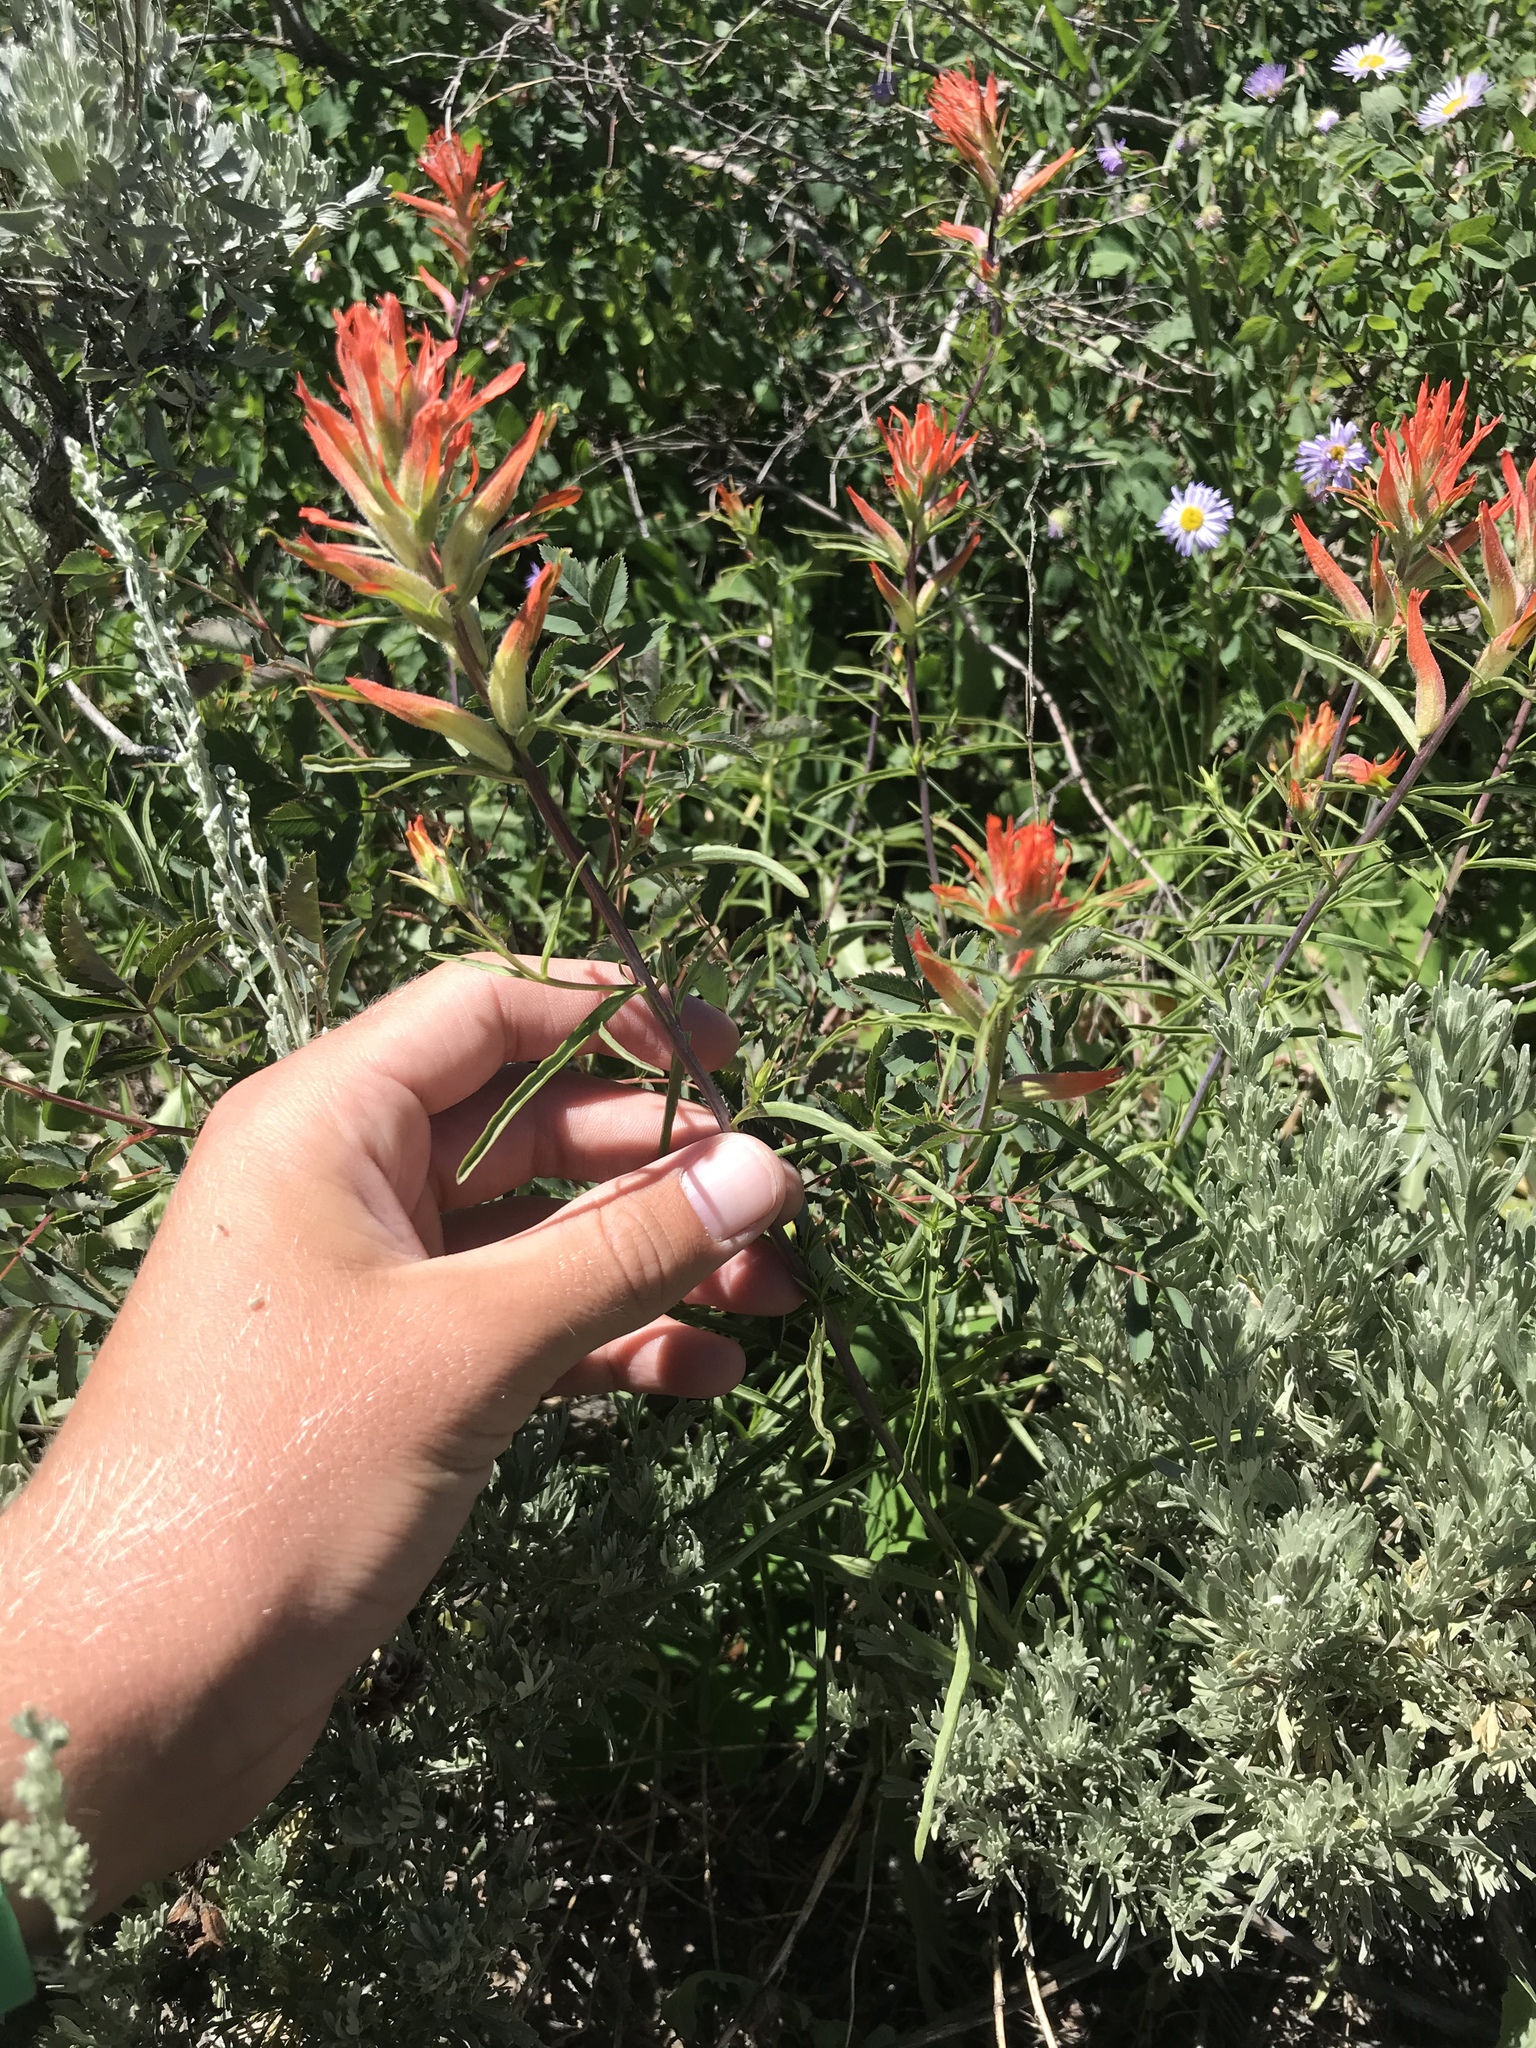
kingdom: Plantae
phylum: Tracheophyta
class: Magnoliopsida
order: Lamiales
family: Orobanchaceae
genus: Castilleja
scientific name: Castilleja linariifolia
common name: Wyoming paintbrush
